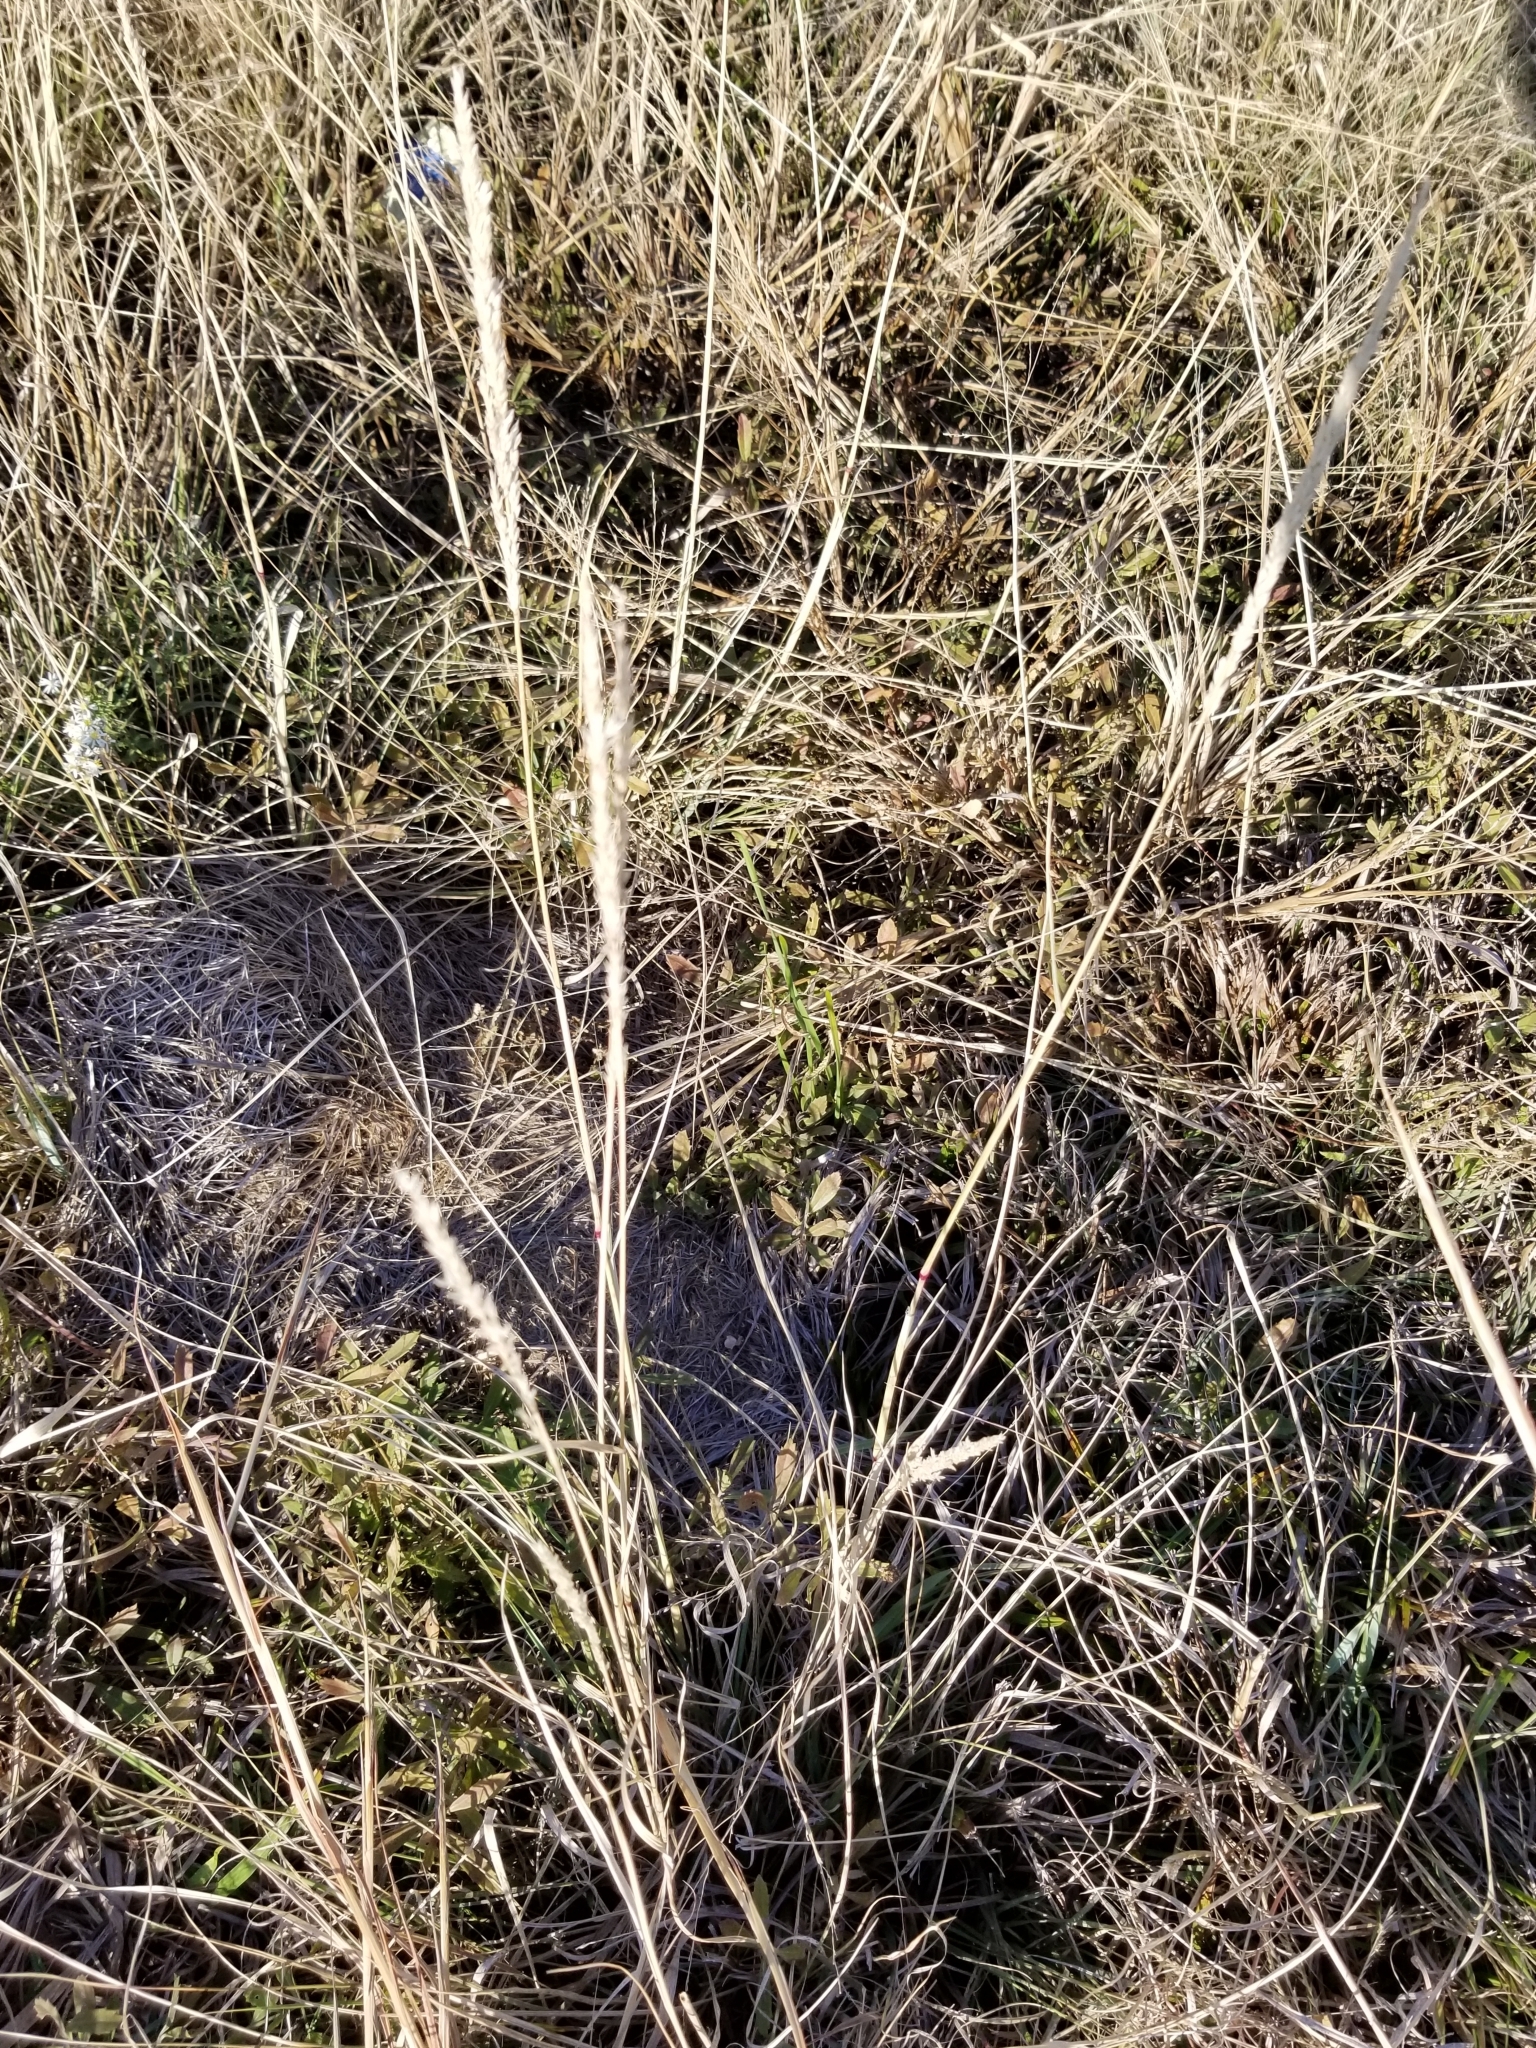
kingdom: Plantae
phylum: Tracheophyta
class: Liliopsida
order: Poales
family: Poaceae
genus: Tridens
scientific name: Tridens albescens
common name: White tridens
